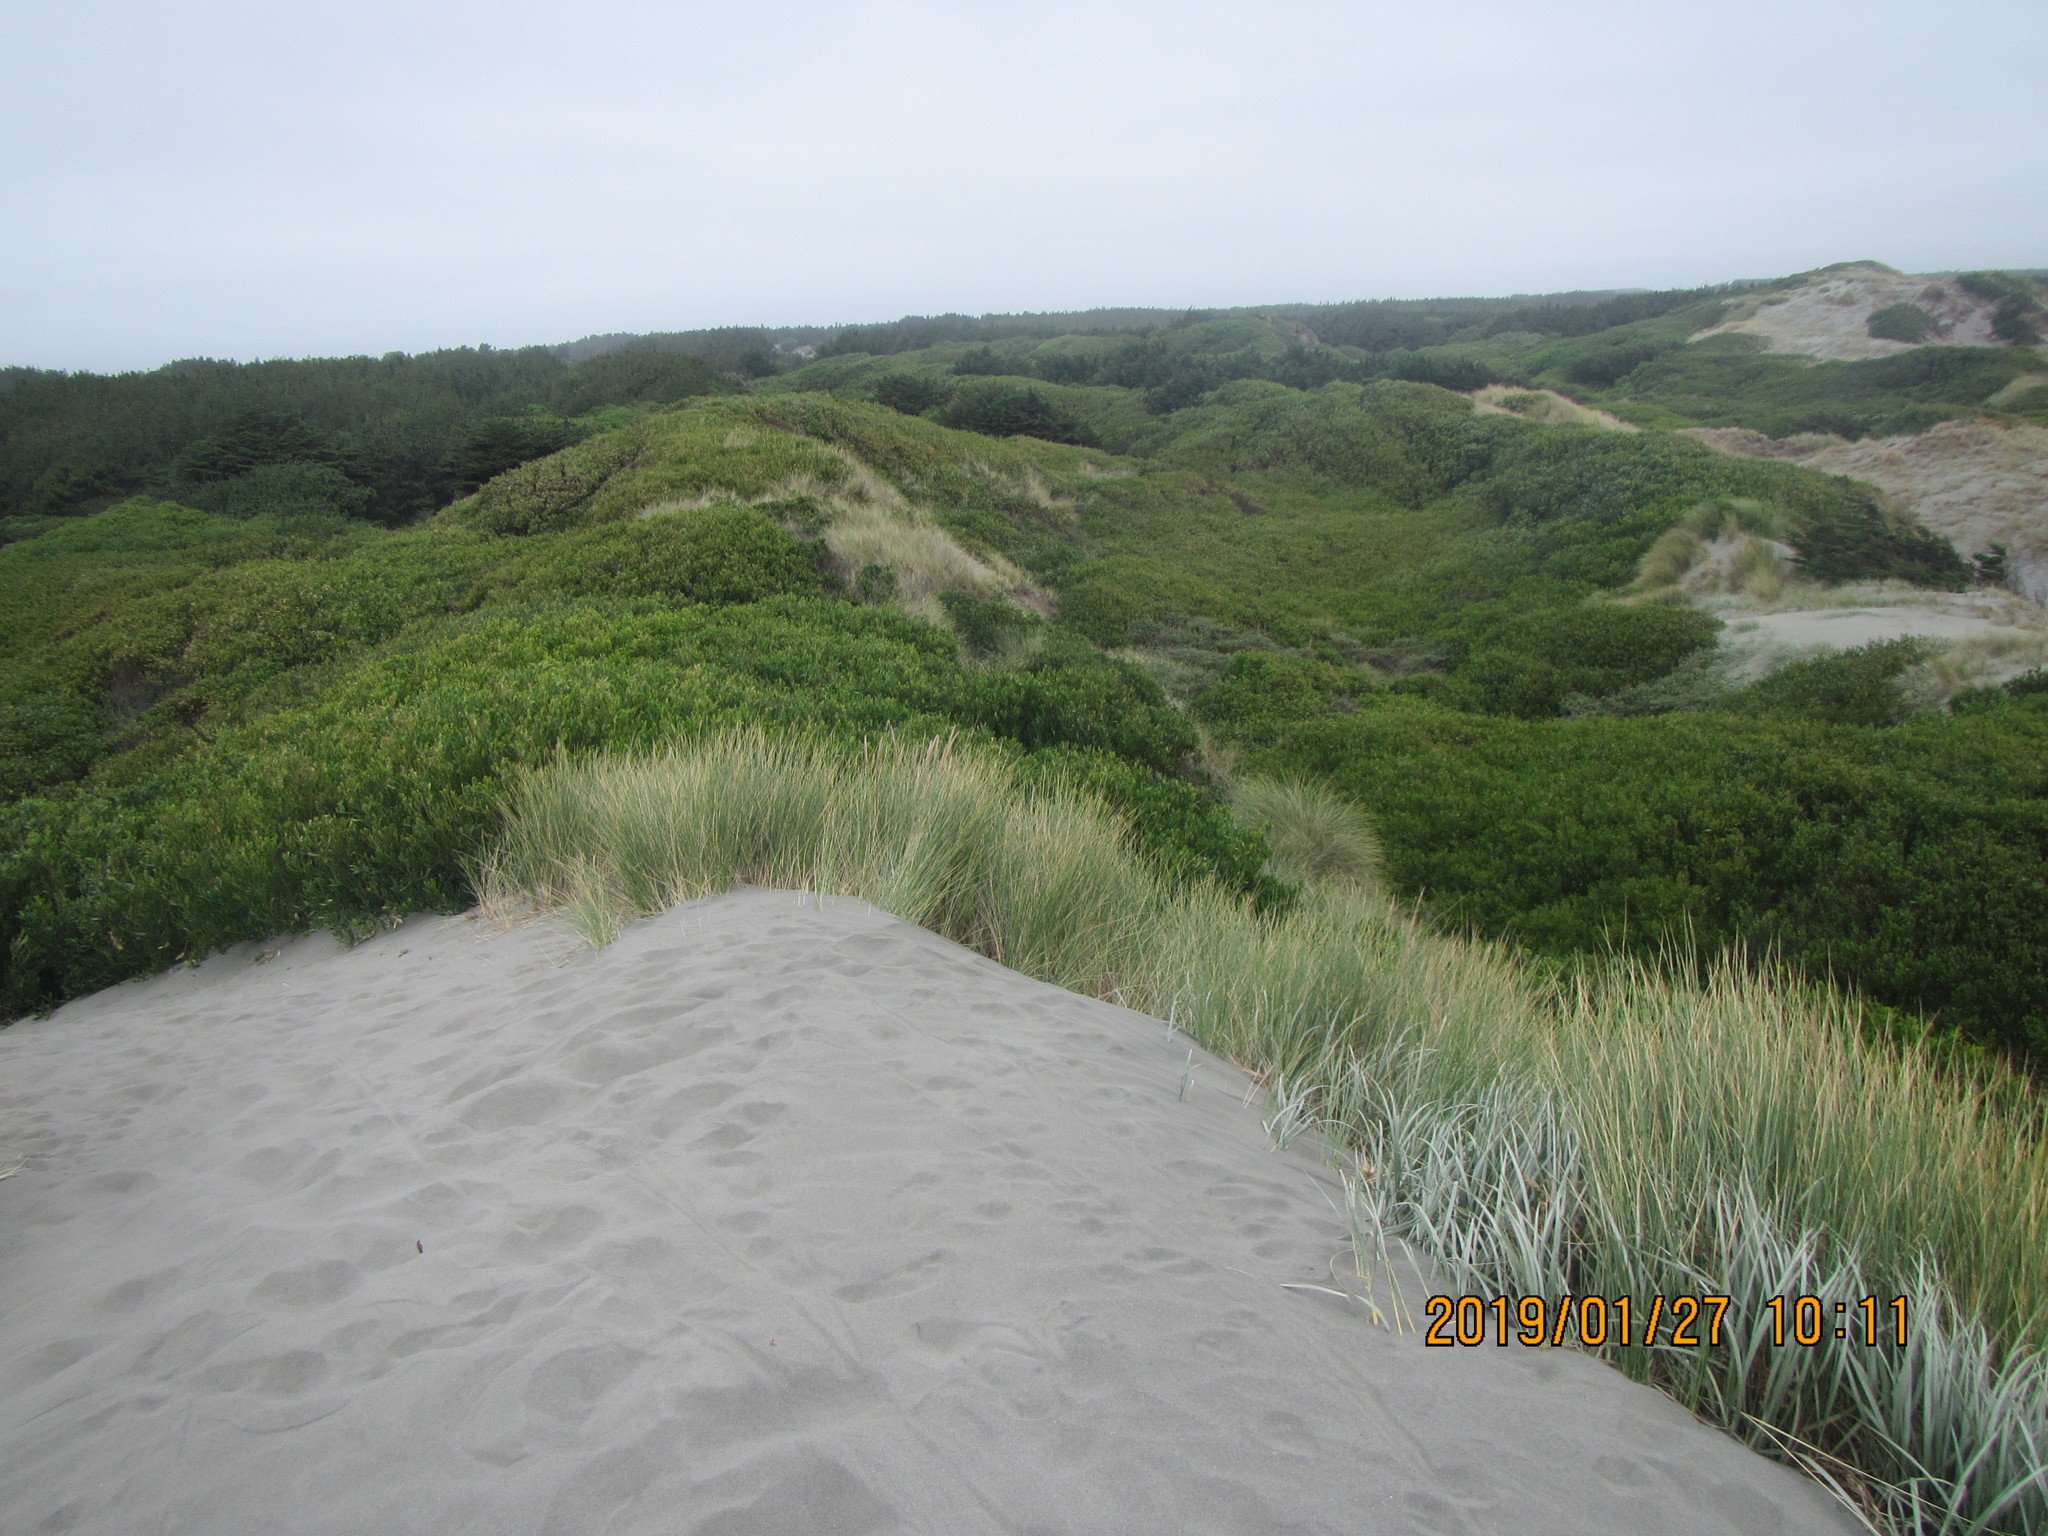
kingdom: Plantae
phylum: Tracheophyta
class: Magnoliopsida
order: Fabales
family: Fabaceae
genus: Acacia
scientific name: Acacia longifolia
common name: Sydney golden wattle
